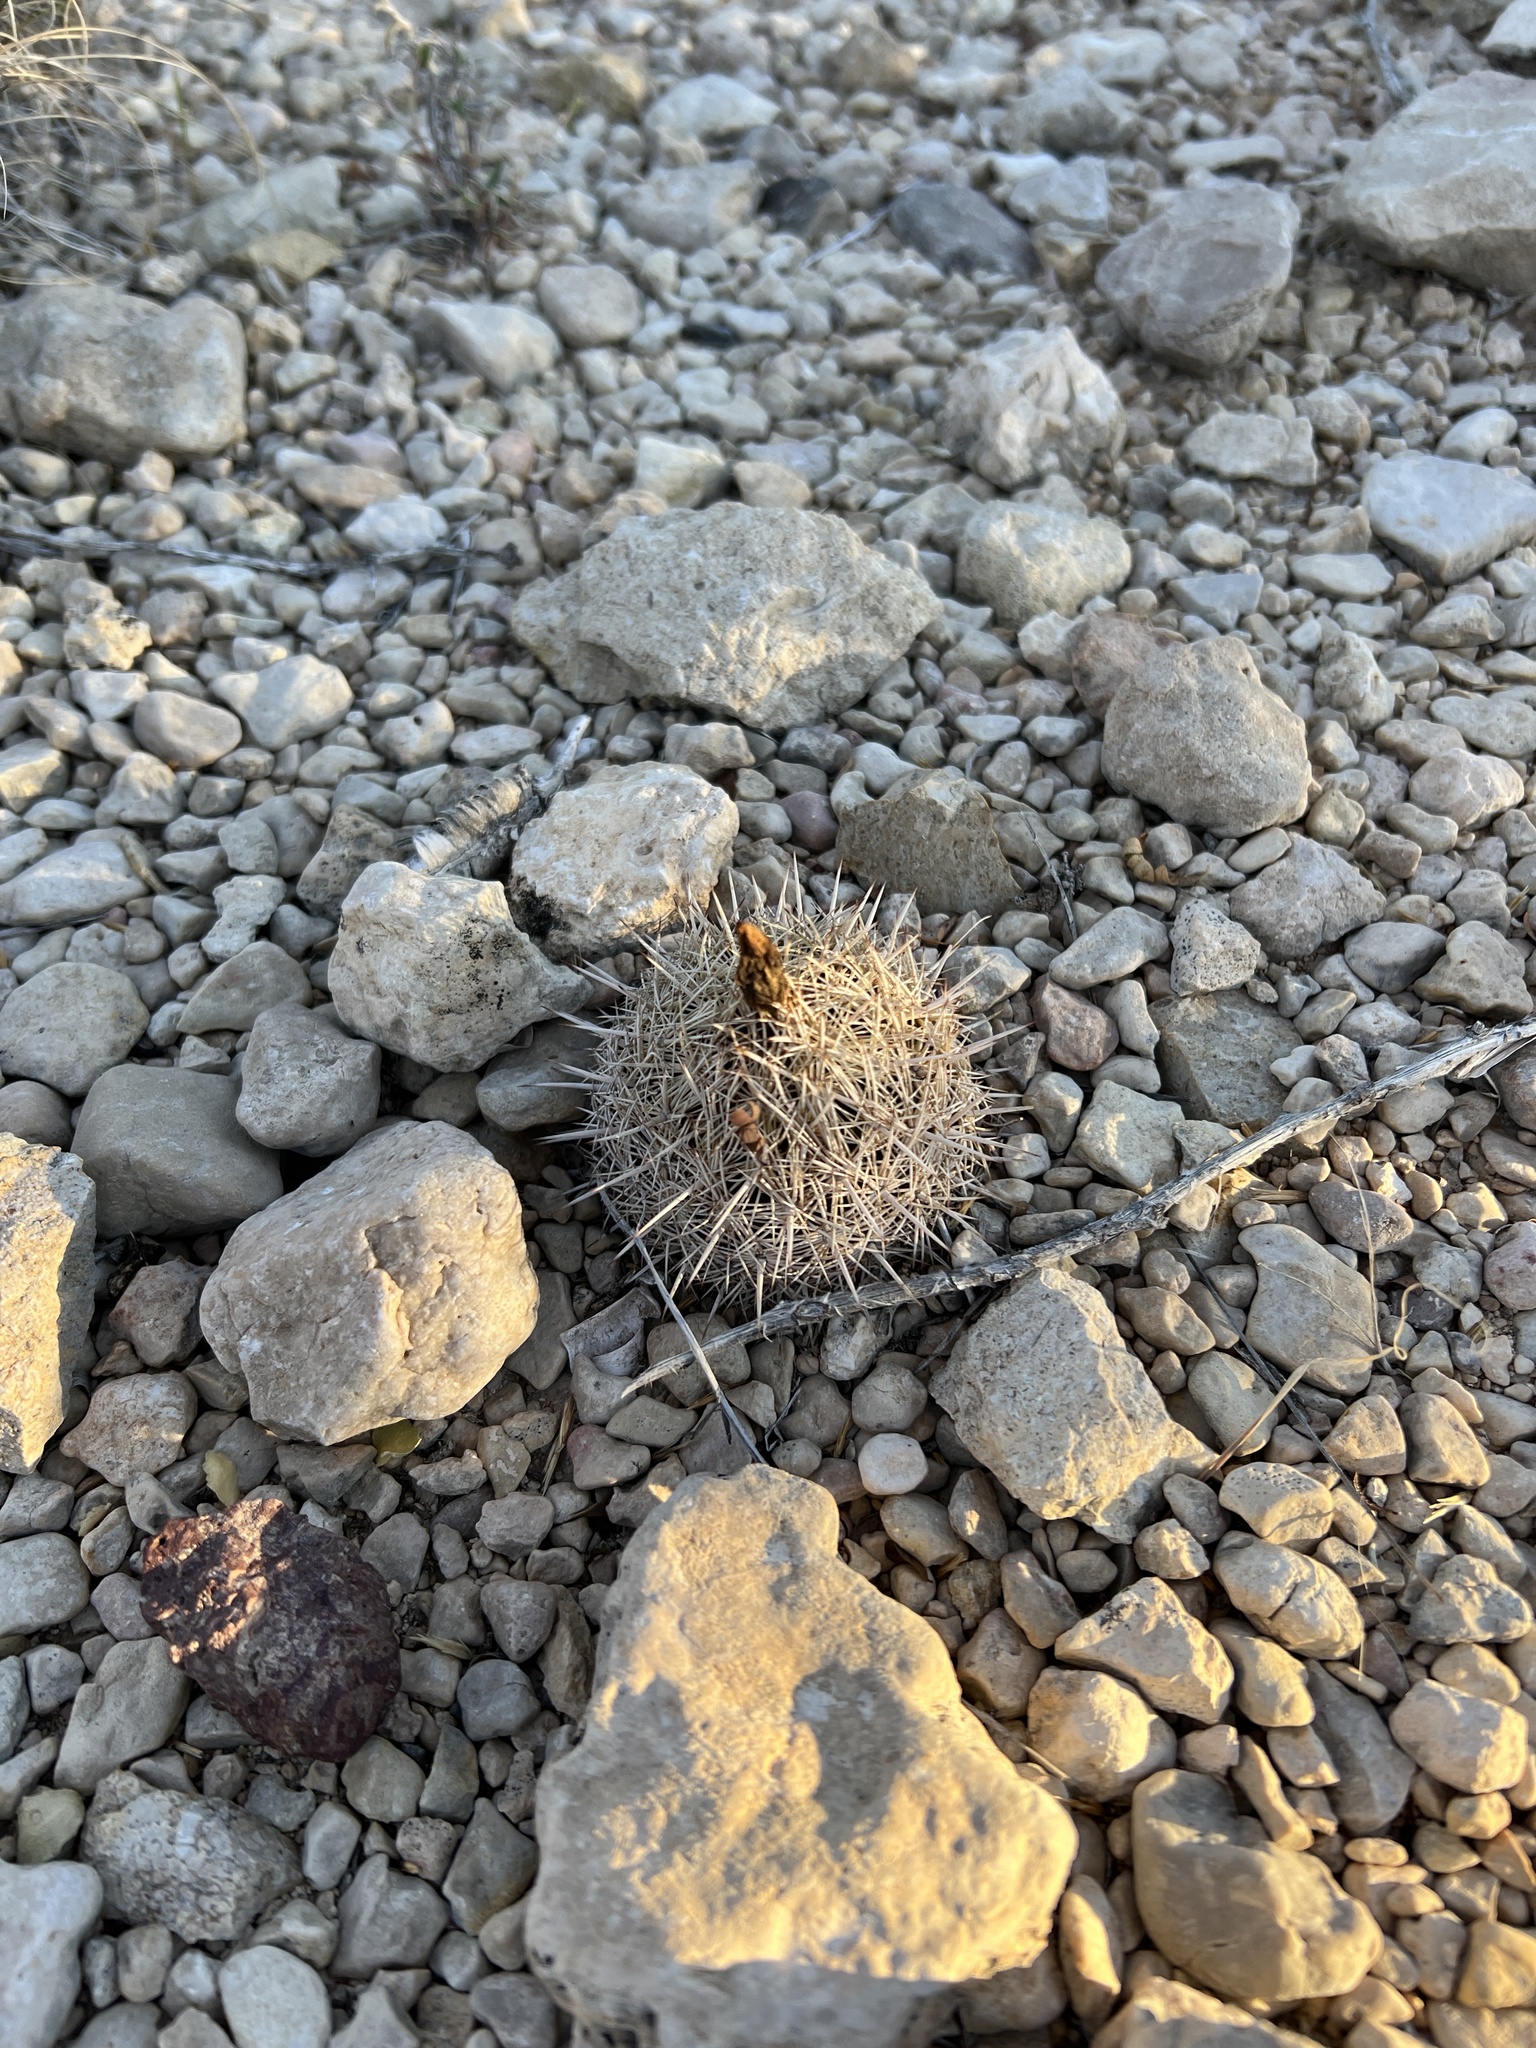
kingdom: Plantae
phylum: Tracheophyta
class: Magnoliopsida
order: Caryophyllales
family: Cactaceae
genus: Coryphantha
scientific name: Coryphantha echinus
